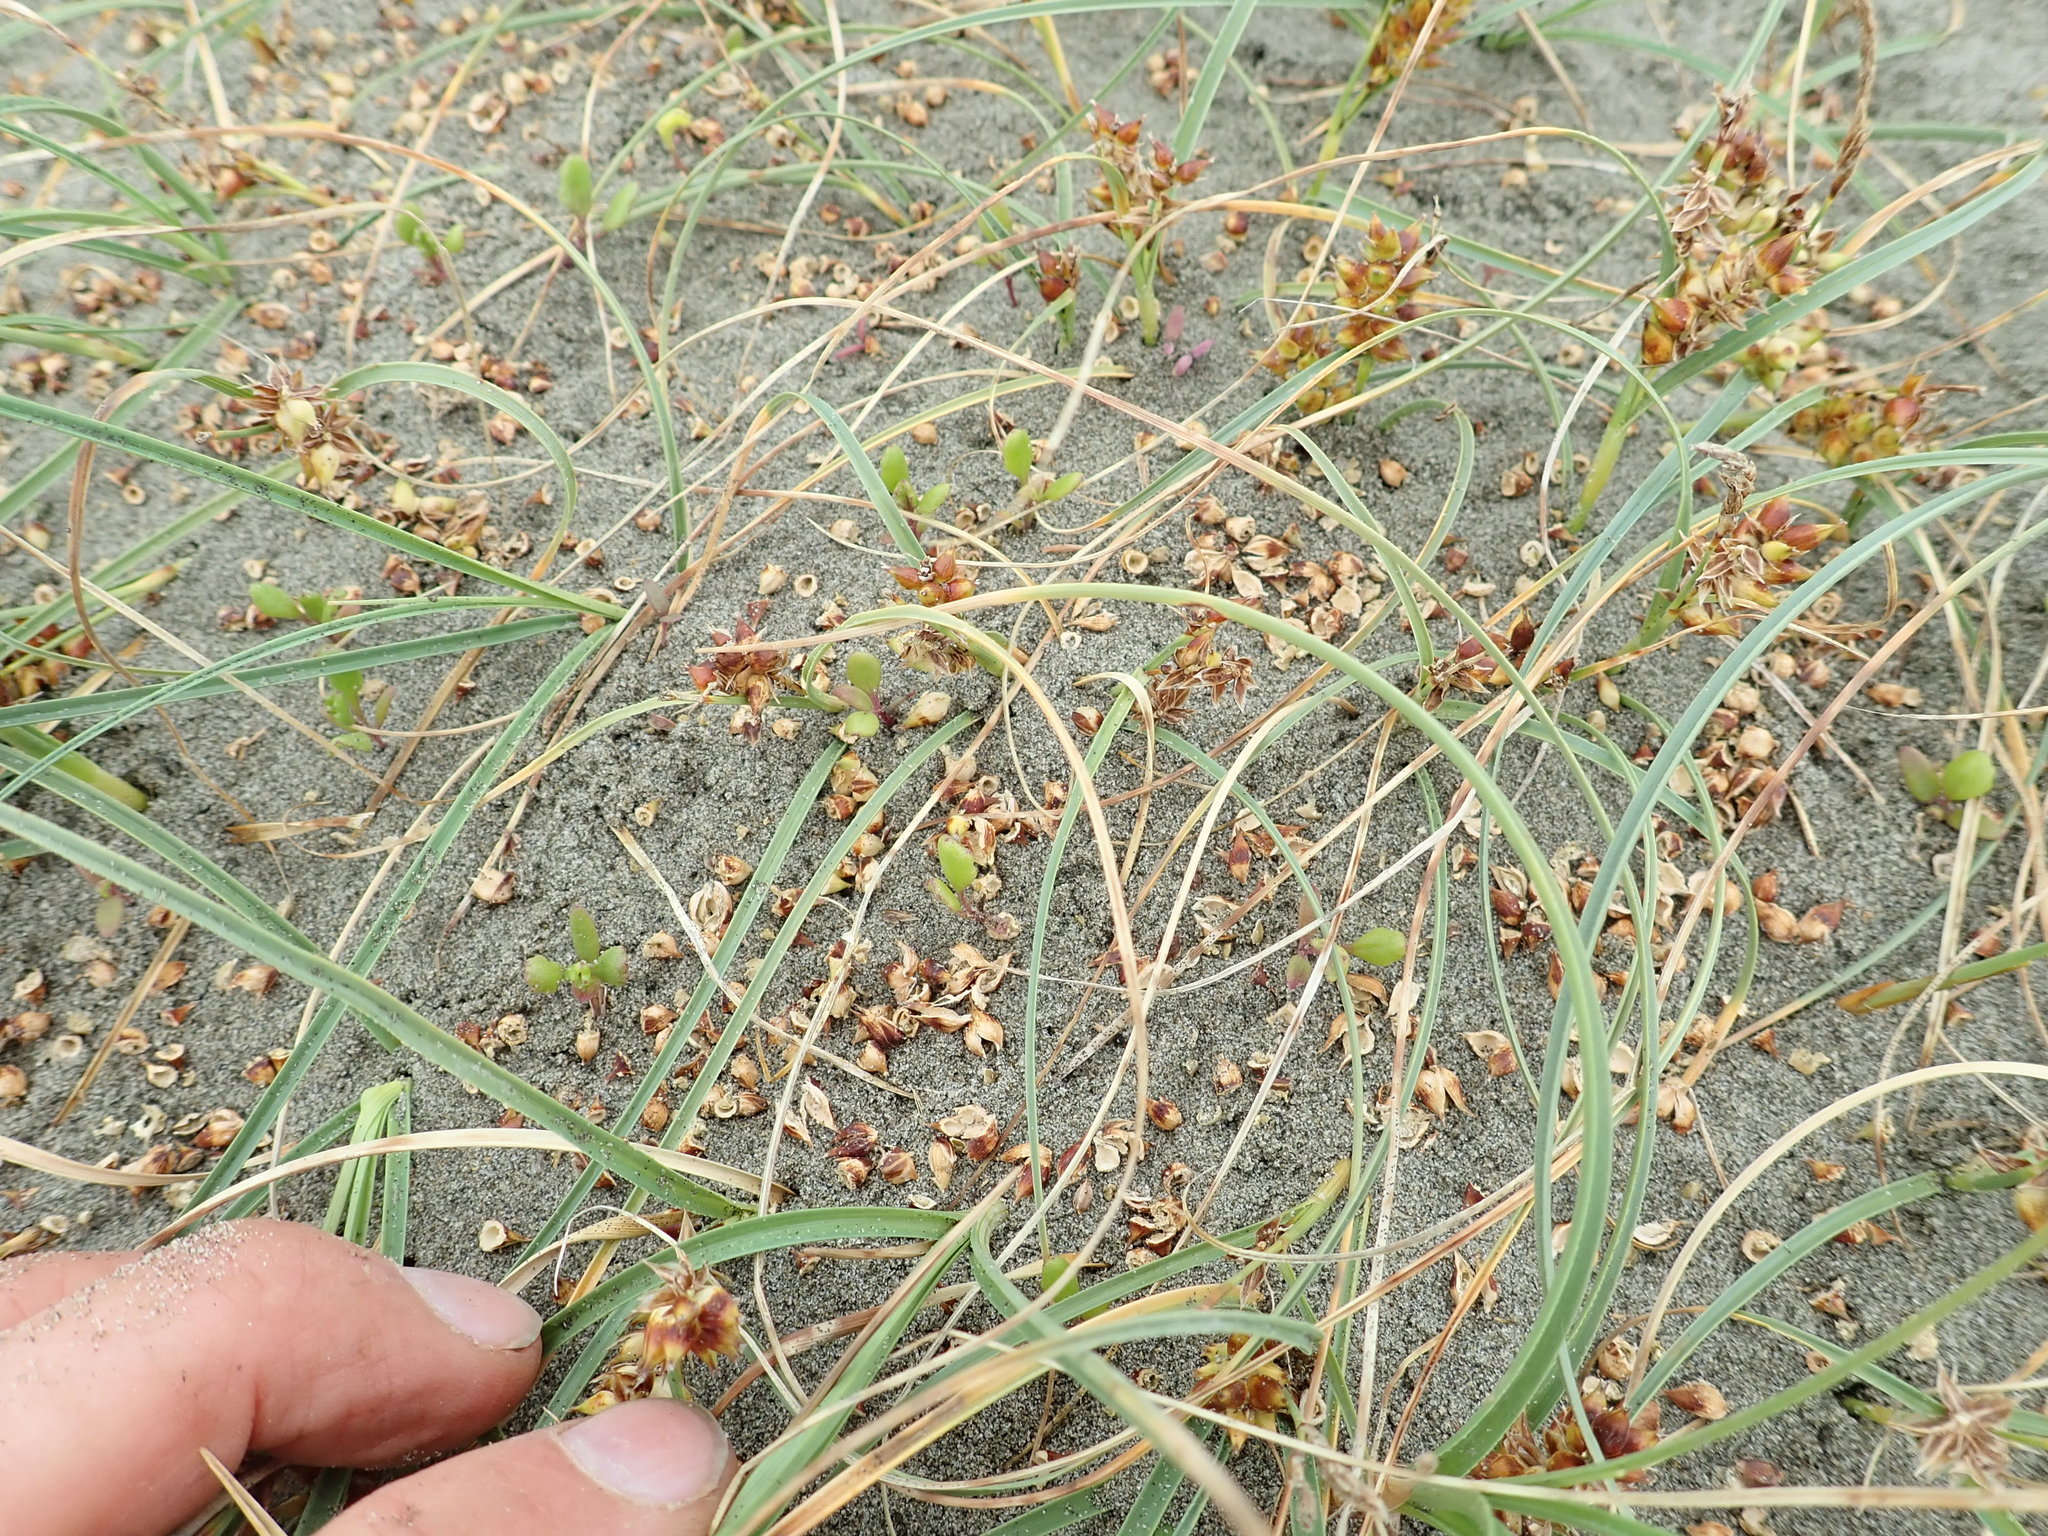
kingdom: Plantae
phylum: Tracheophyta
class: Magnoliopsida
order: Asterales
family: Asteraceae
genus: Senecio
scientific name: Senecio elegans
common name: Purple groundsel
